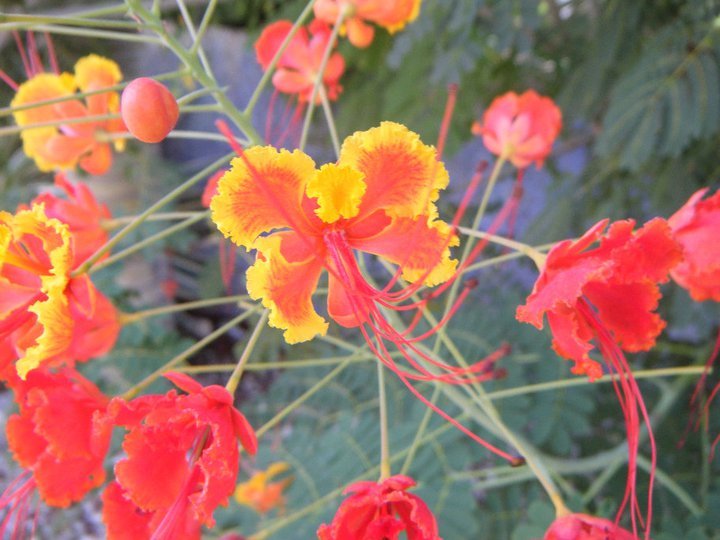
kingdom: Plantae
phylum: Tracheophyta
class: Magnoliopsida
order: Fabales
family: Fabaceae
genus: Caesalpinia
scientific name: Caesalpinia pulcherrima
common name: Pride-of-barbados
